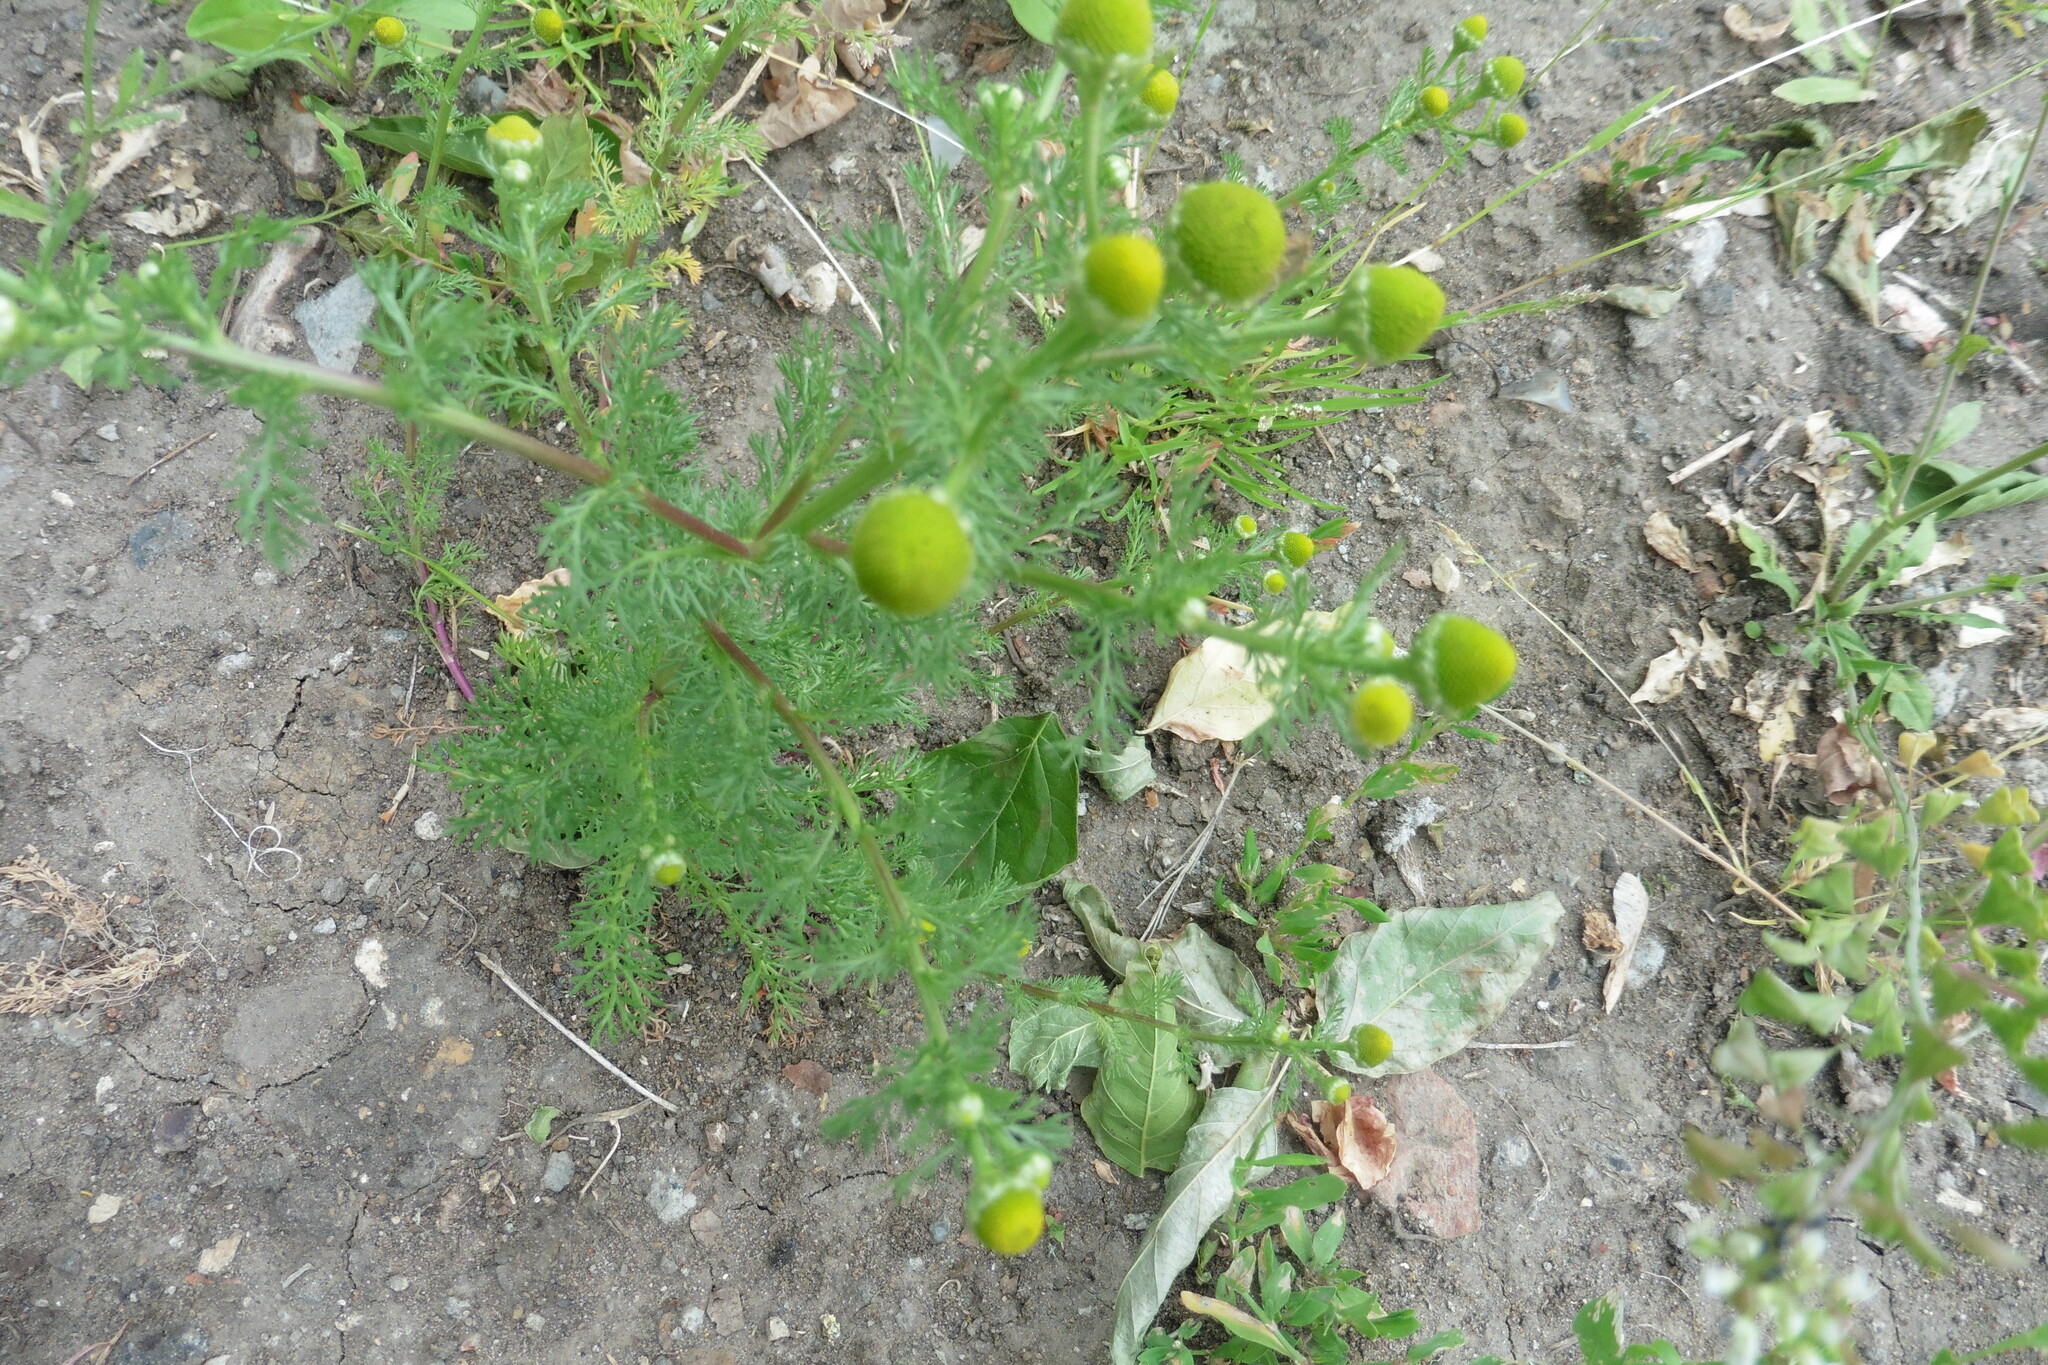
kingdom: Plantae
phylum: Tracheophyta
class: Magnoliopsida
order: Asterales
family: Asteraceae
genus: Matricaria
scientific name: Matricaria discoidea
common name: Disc mayweed
